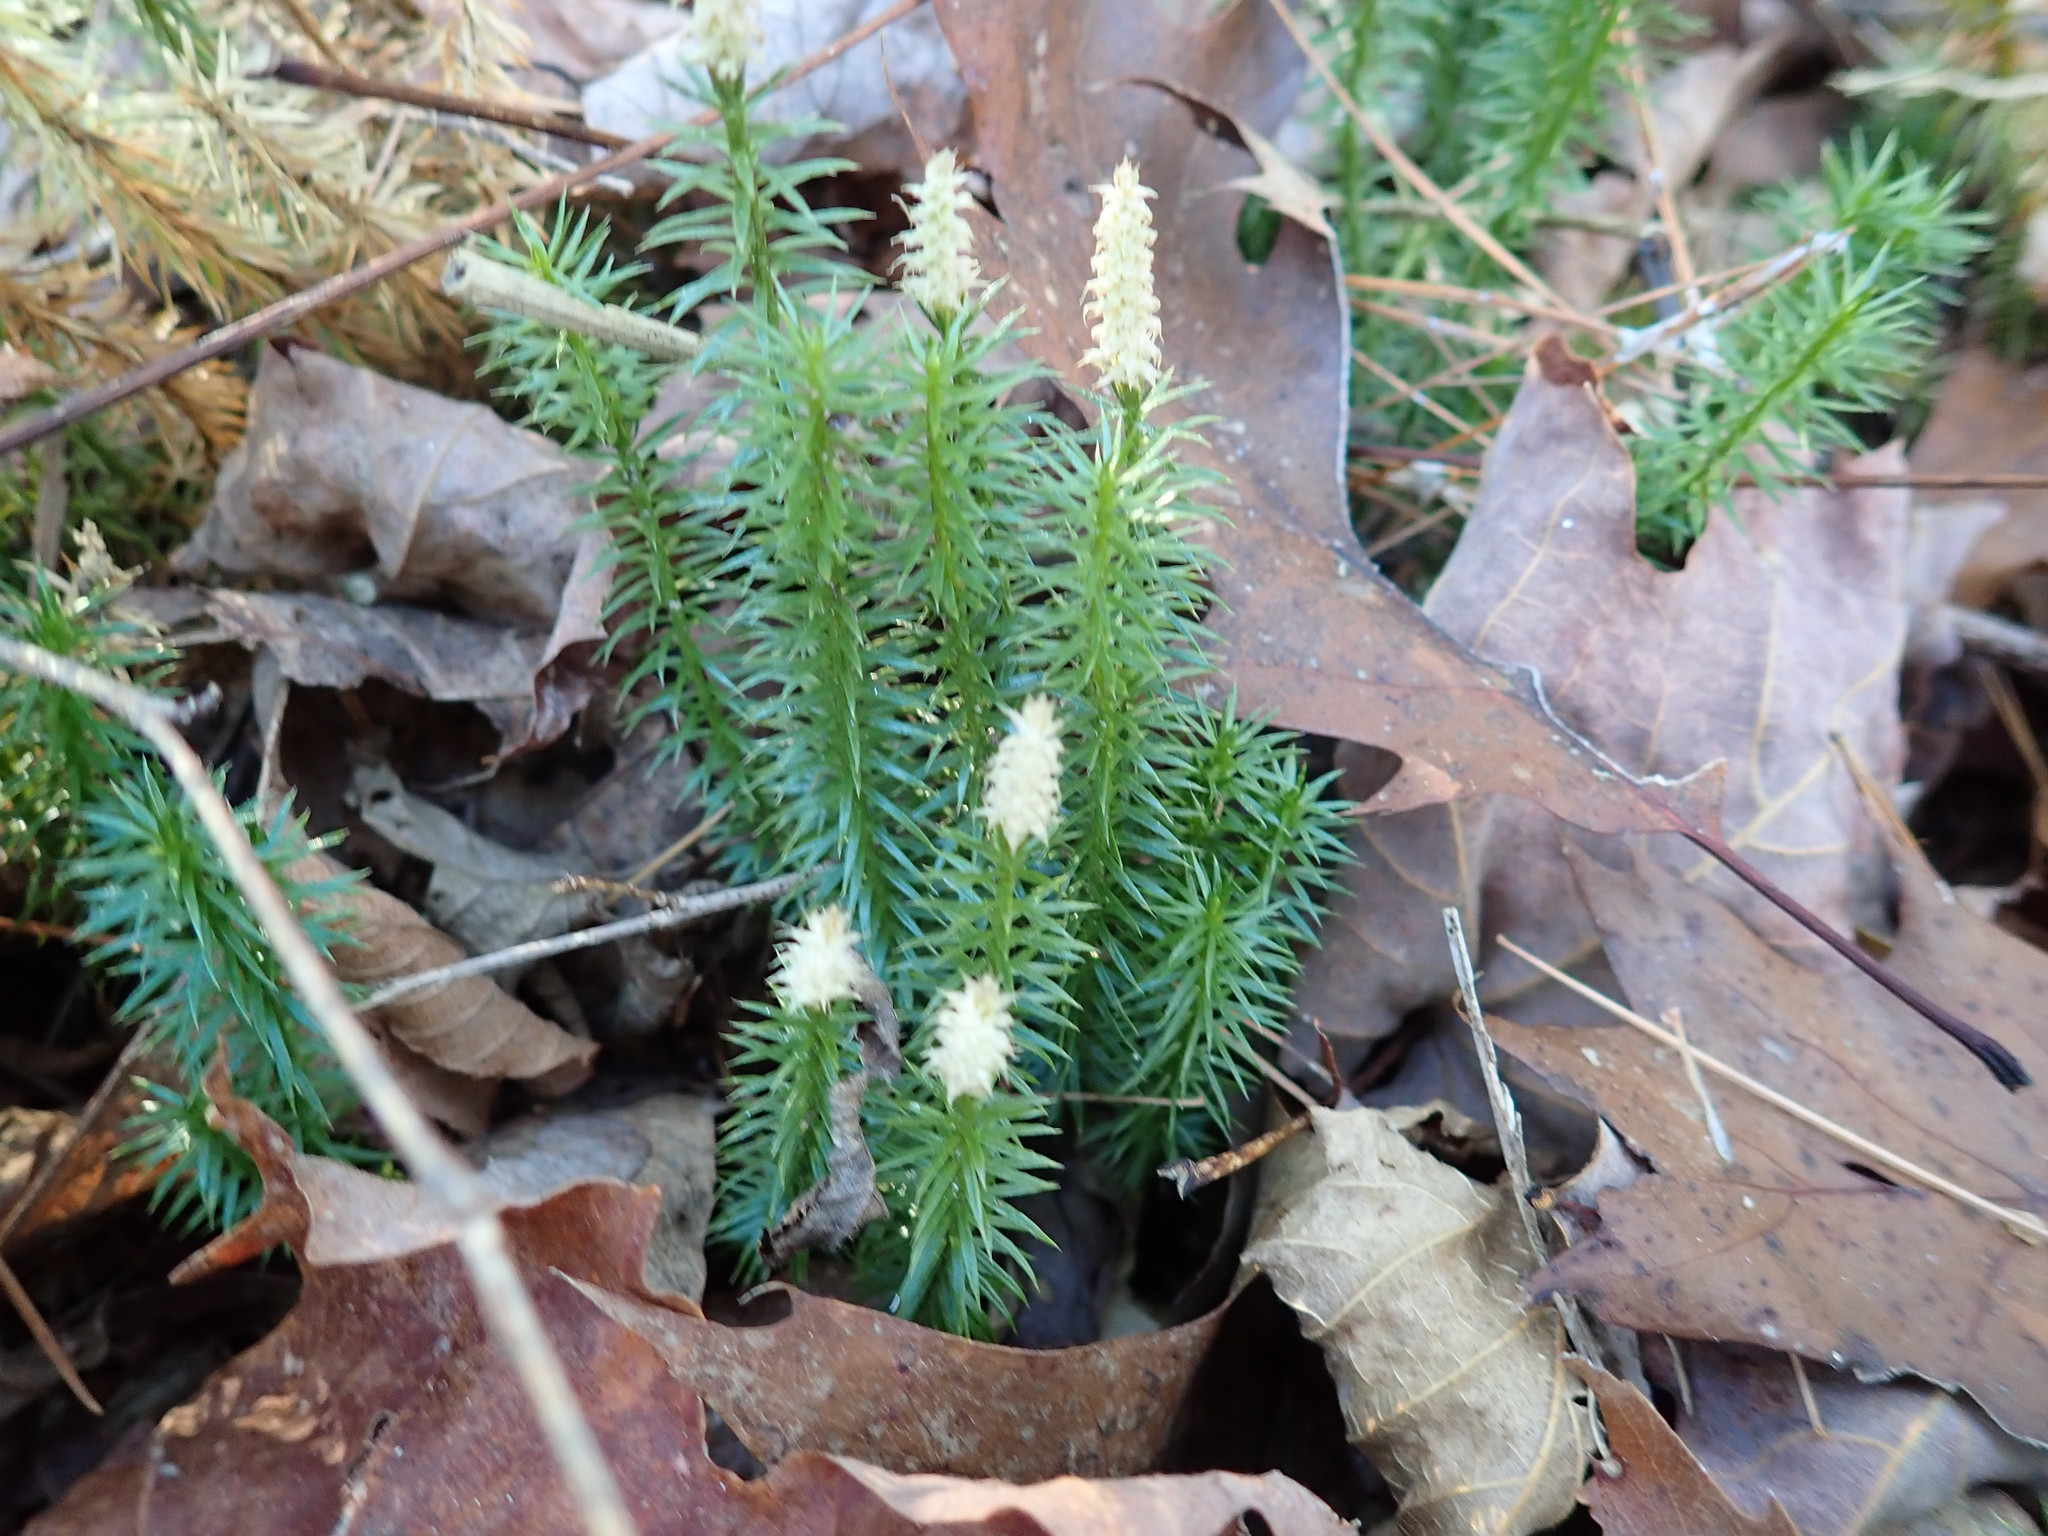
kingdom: Plantae
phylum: Tracheophyta
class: Lycopodiopsida
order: Lycopodiales
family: Lycopodiaceae
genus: Spinulum
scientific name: Spinulum annotinum
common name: Interrupted club-moss
